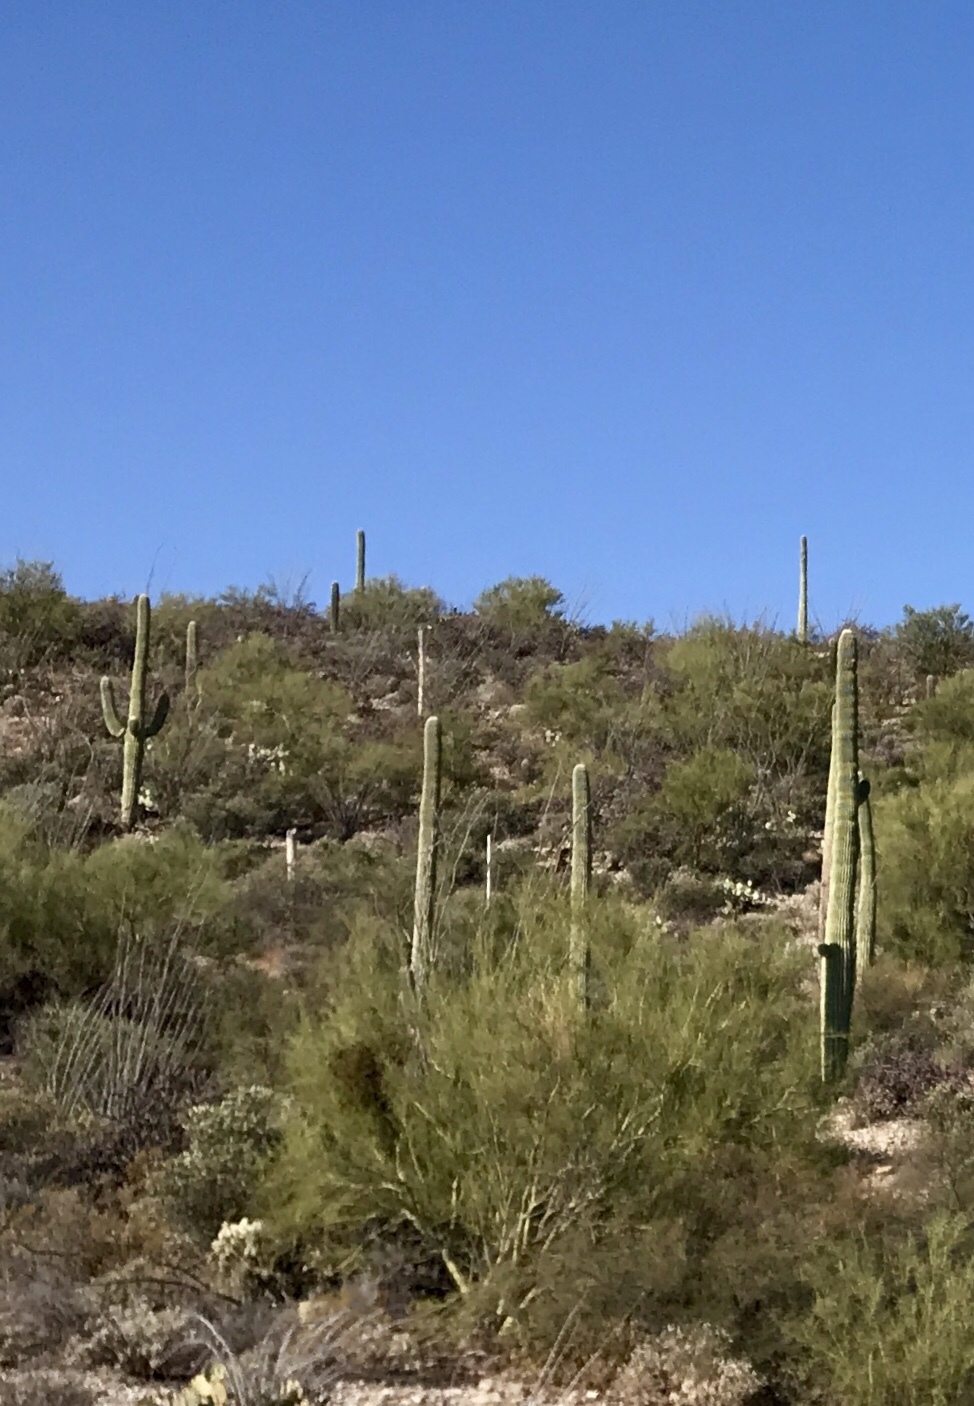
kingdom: Plantae
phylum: Tracheophyta
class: Magnoliopsida
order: Caryophyllales
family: Cactaceae
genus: Carnegiea
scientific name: Carnegiea gigantea
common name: Saguaro
